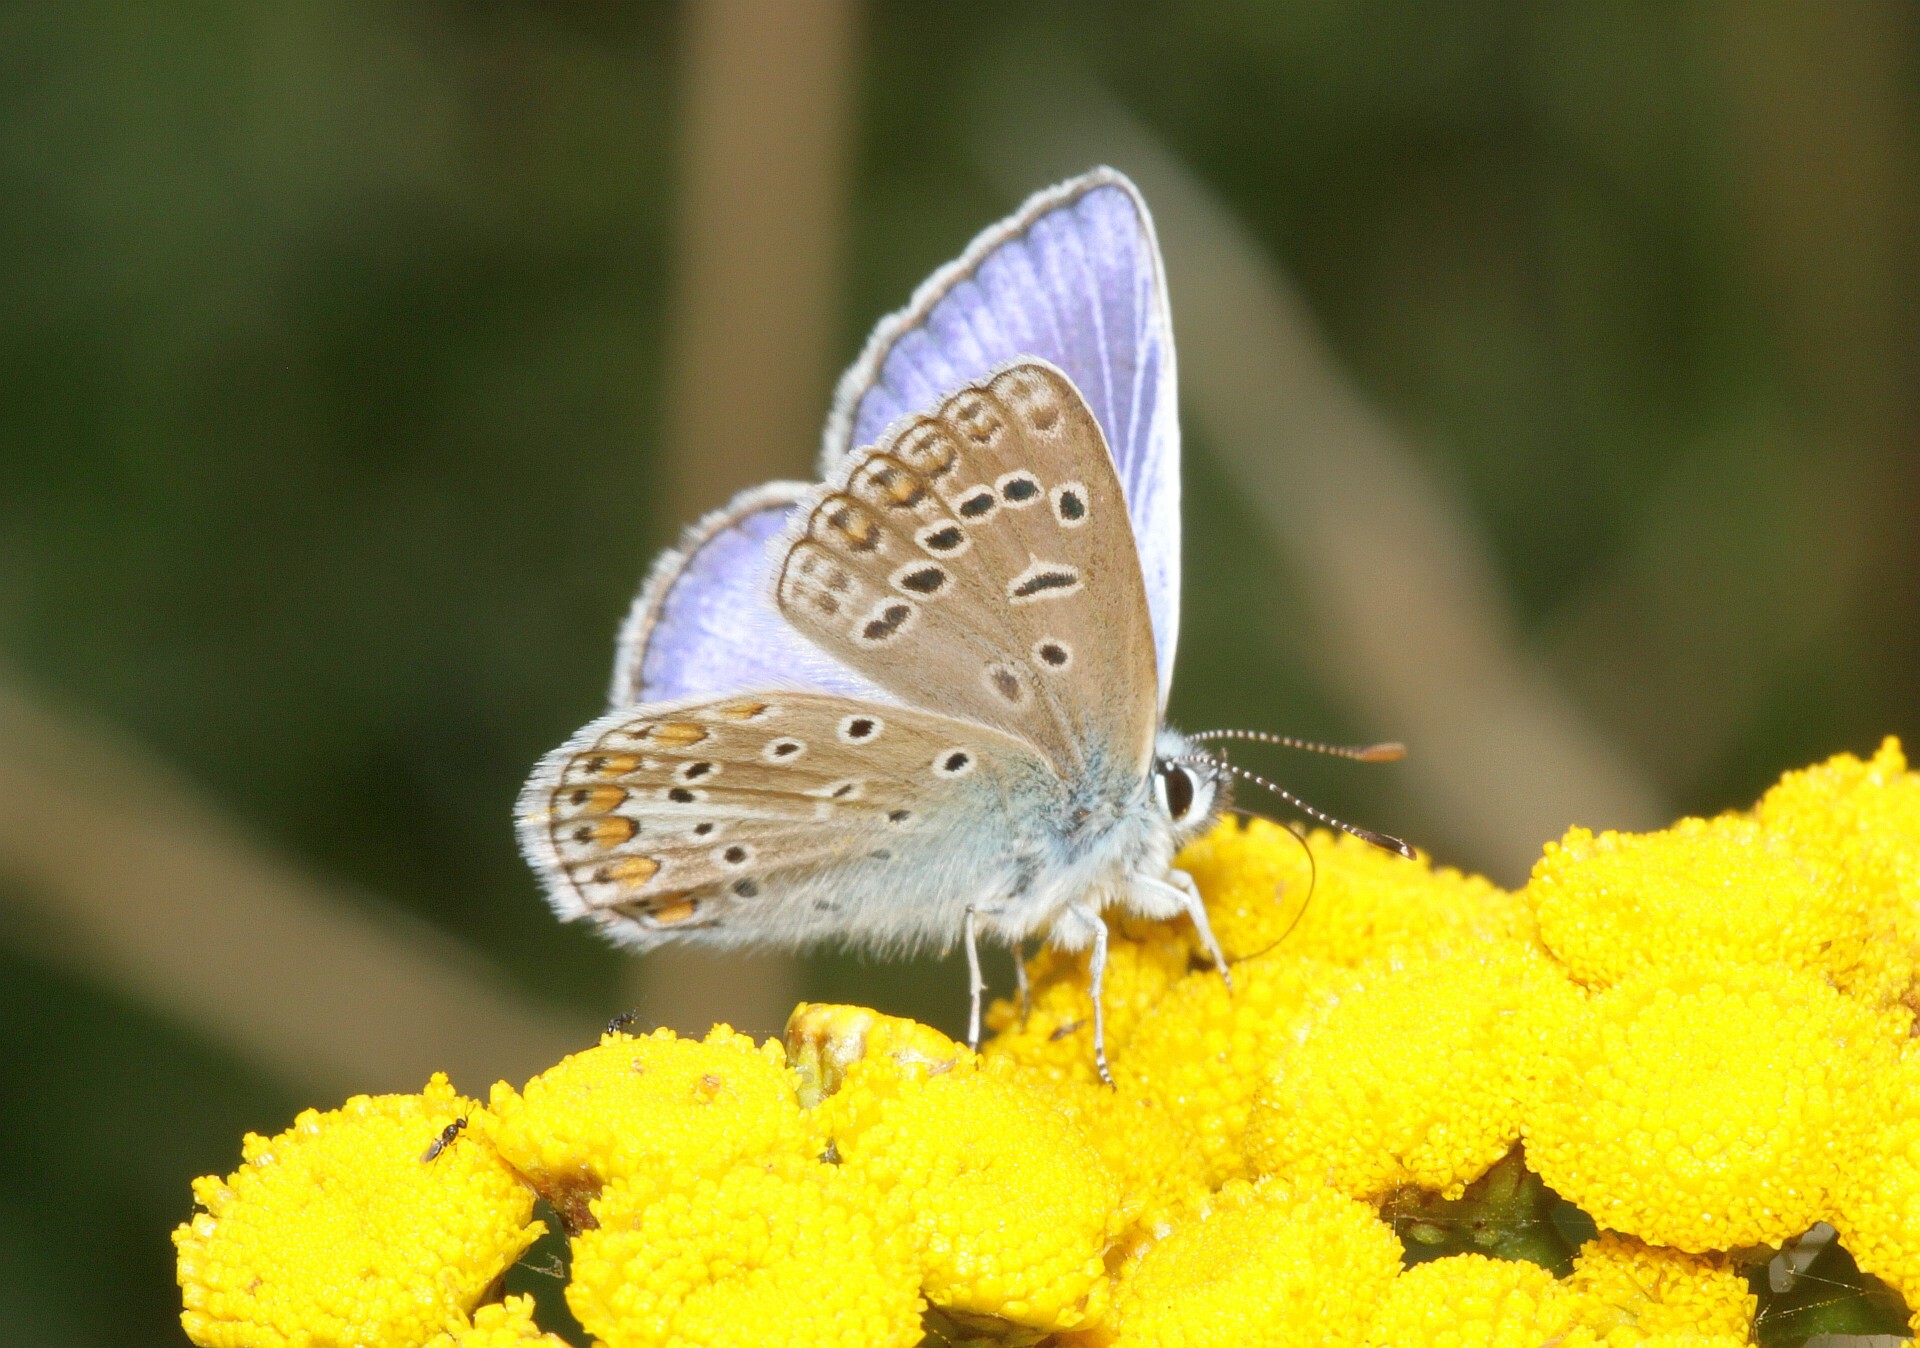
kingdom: Animalia
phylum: Arthropoda
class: Insecta
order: Lepidoptera
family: Lycaenidae
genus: Polyommatus
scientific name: Polyommatus icarus
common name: Common blue
